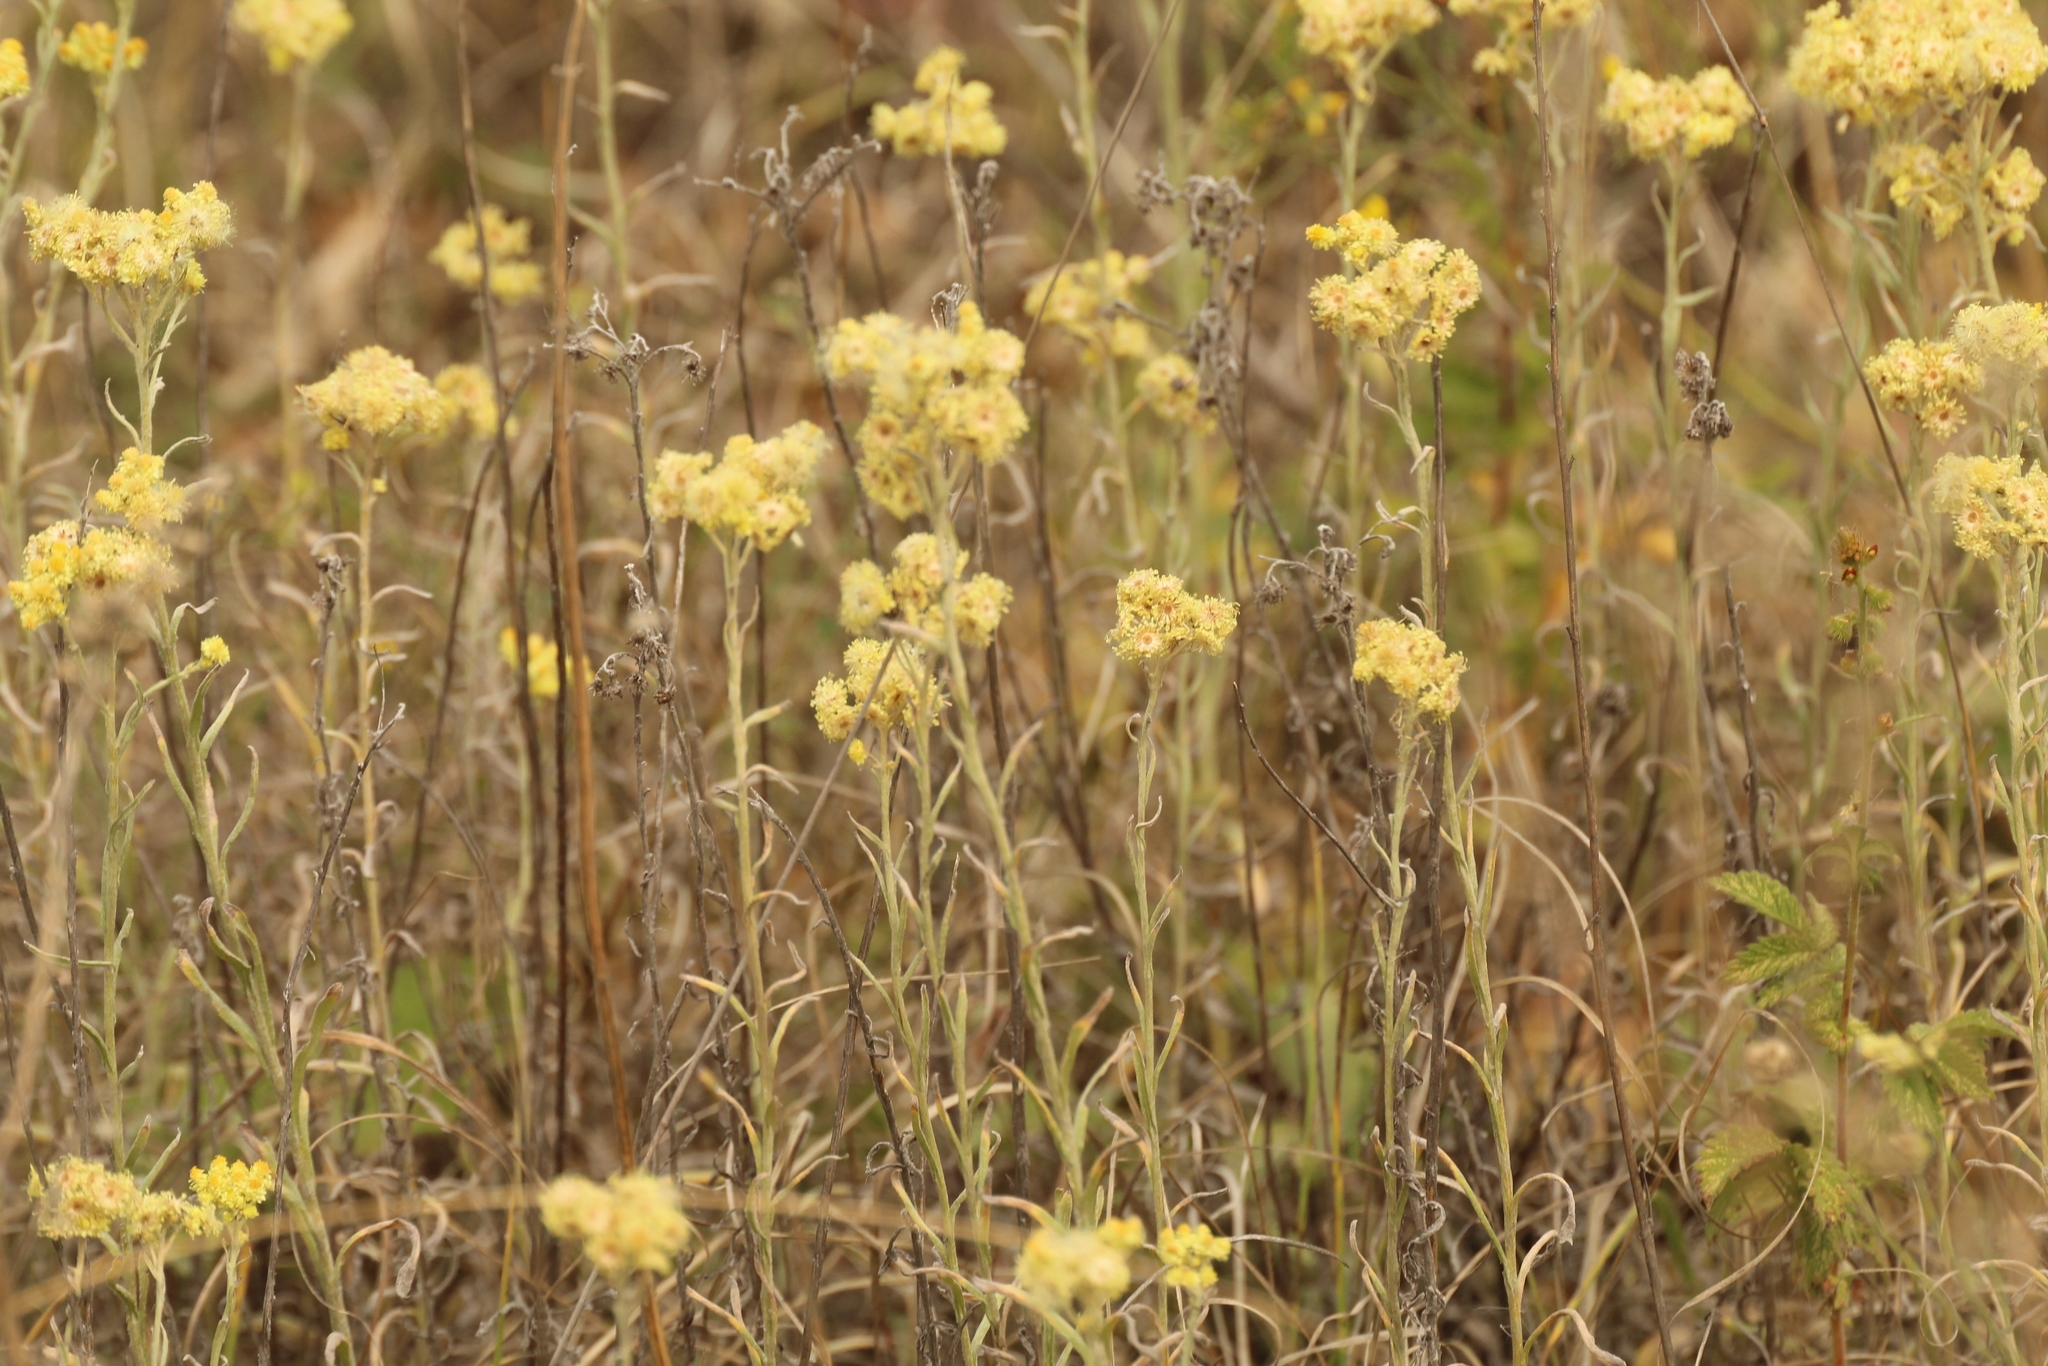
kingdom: Plantae
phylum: Tracheophyta
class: Magnoliopsida
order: Asterales
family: Asteraceae
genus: Helichrysum
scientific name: Helichrysum arenarium
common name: Strawflower
